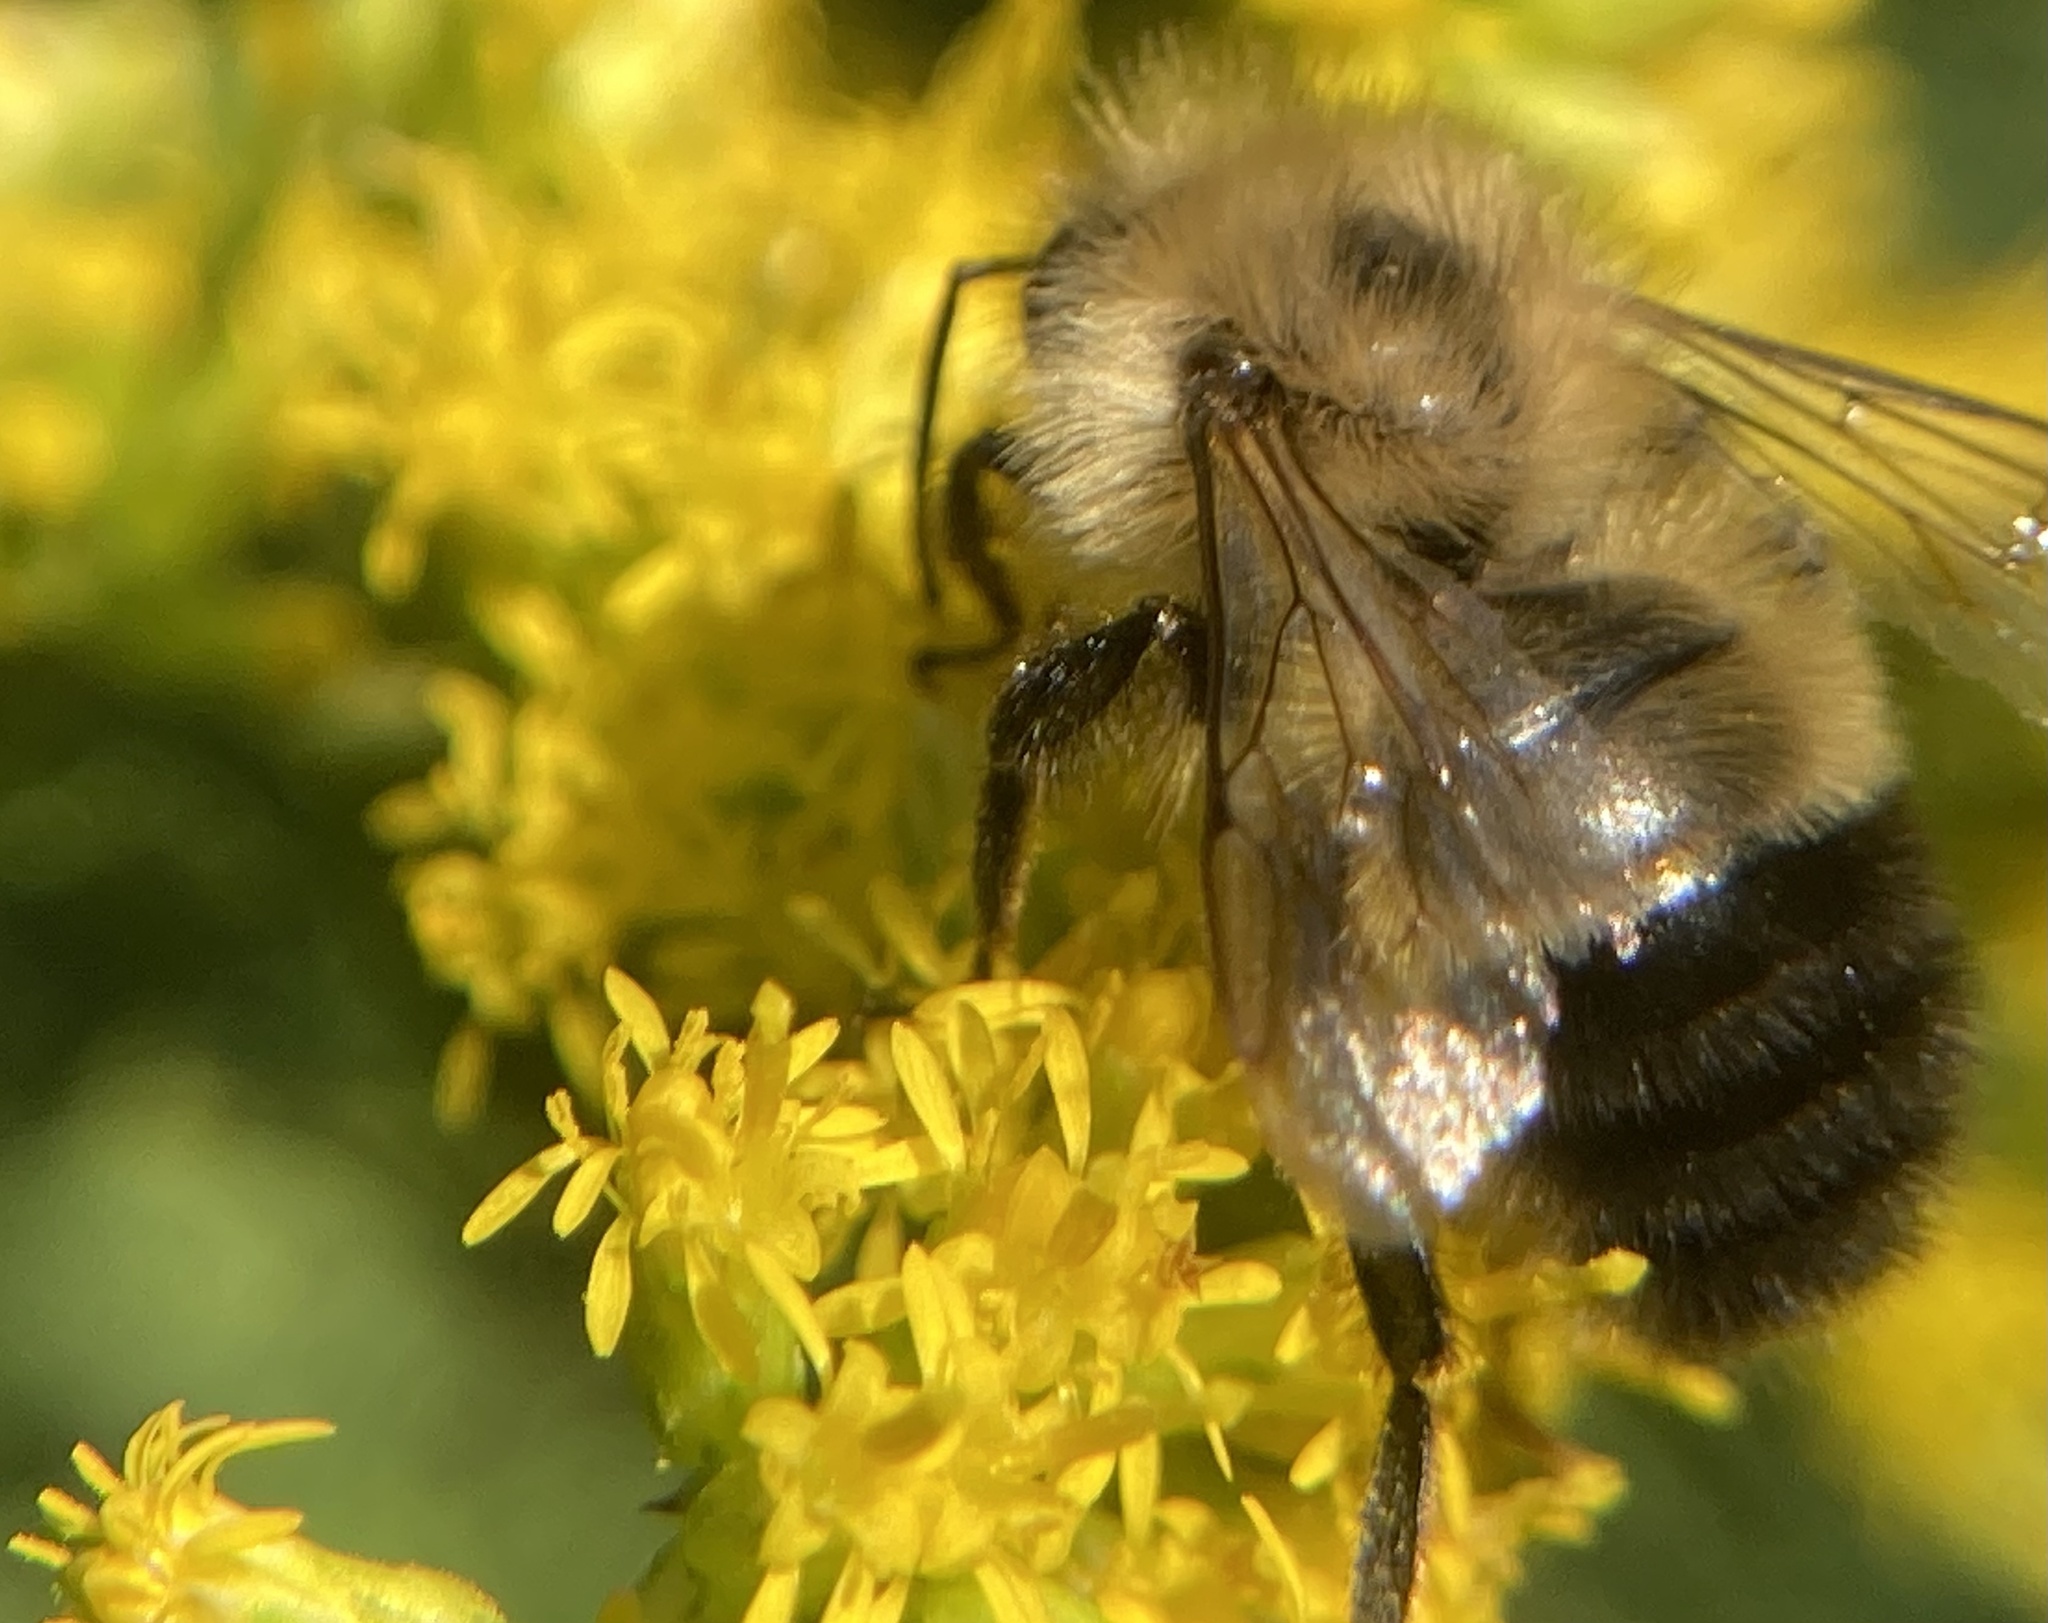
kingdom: Animalia
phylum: Arthropoda
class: Insecta
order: Hymenoptera
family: Apidae
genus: Bombus
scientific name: Bombus vagans
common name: Half-black bumble bee
